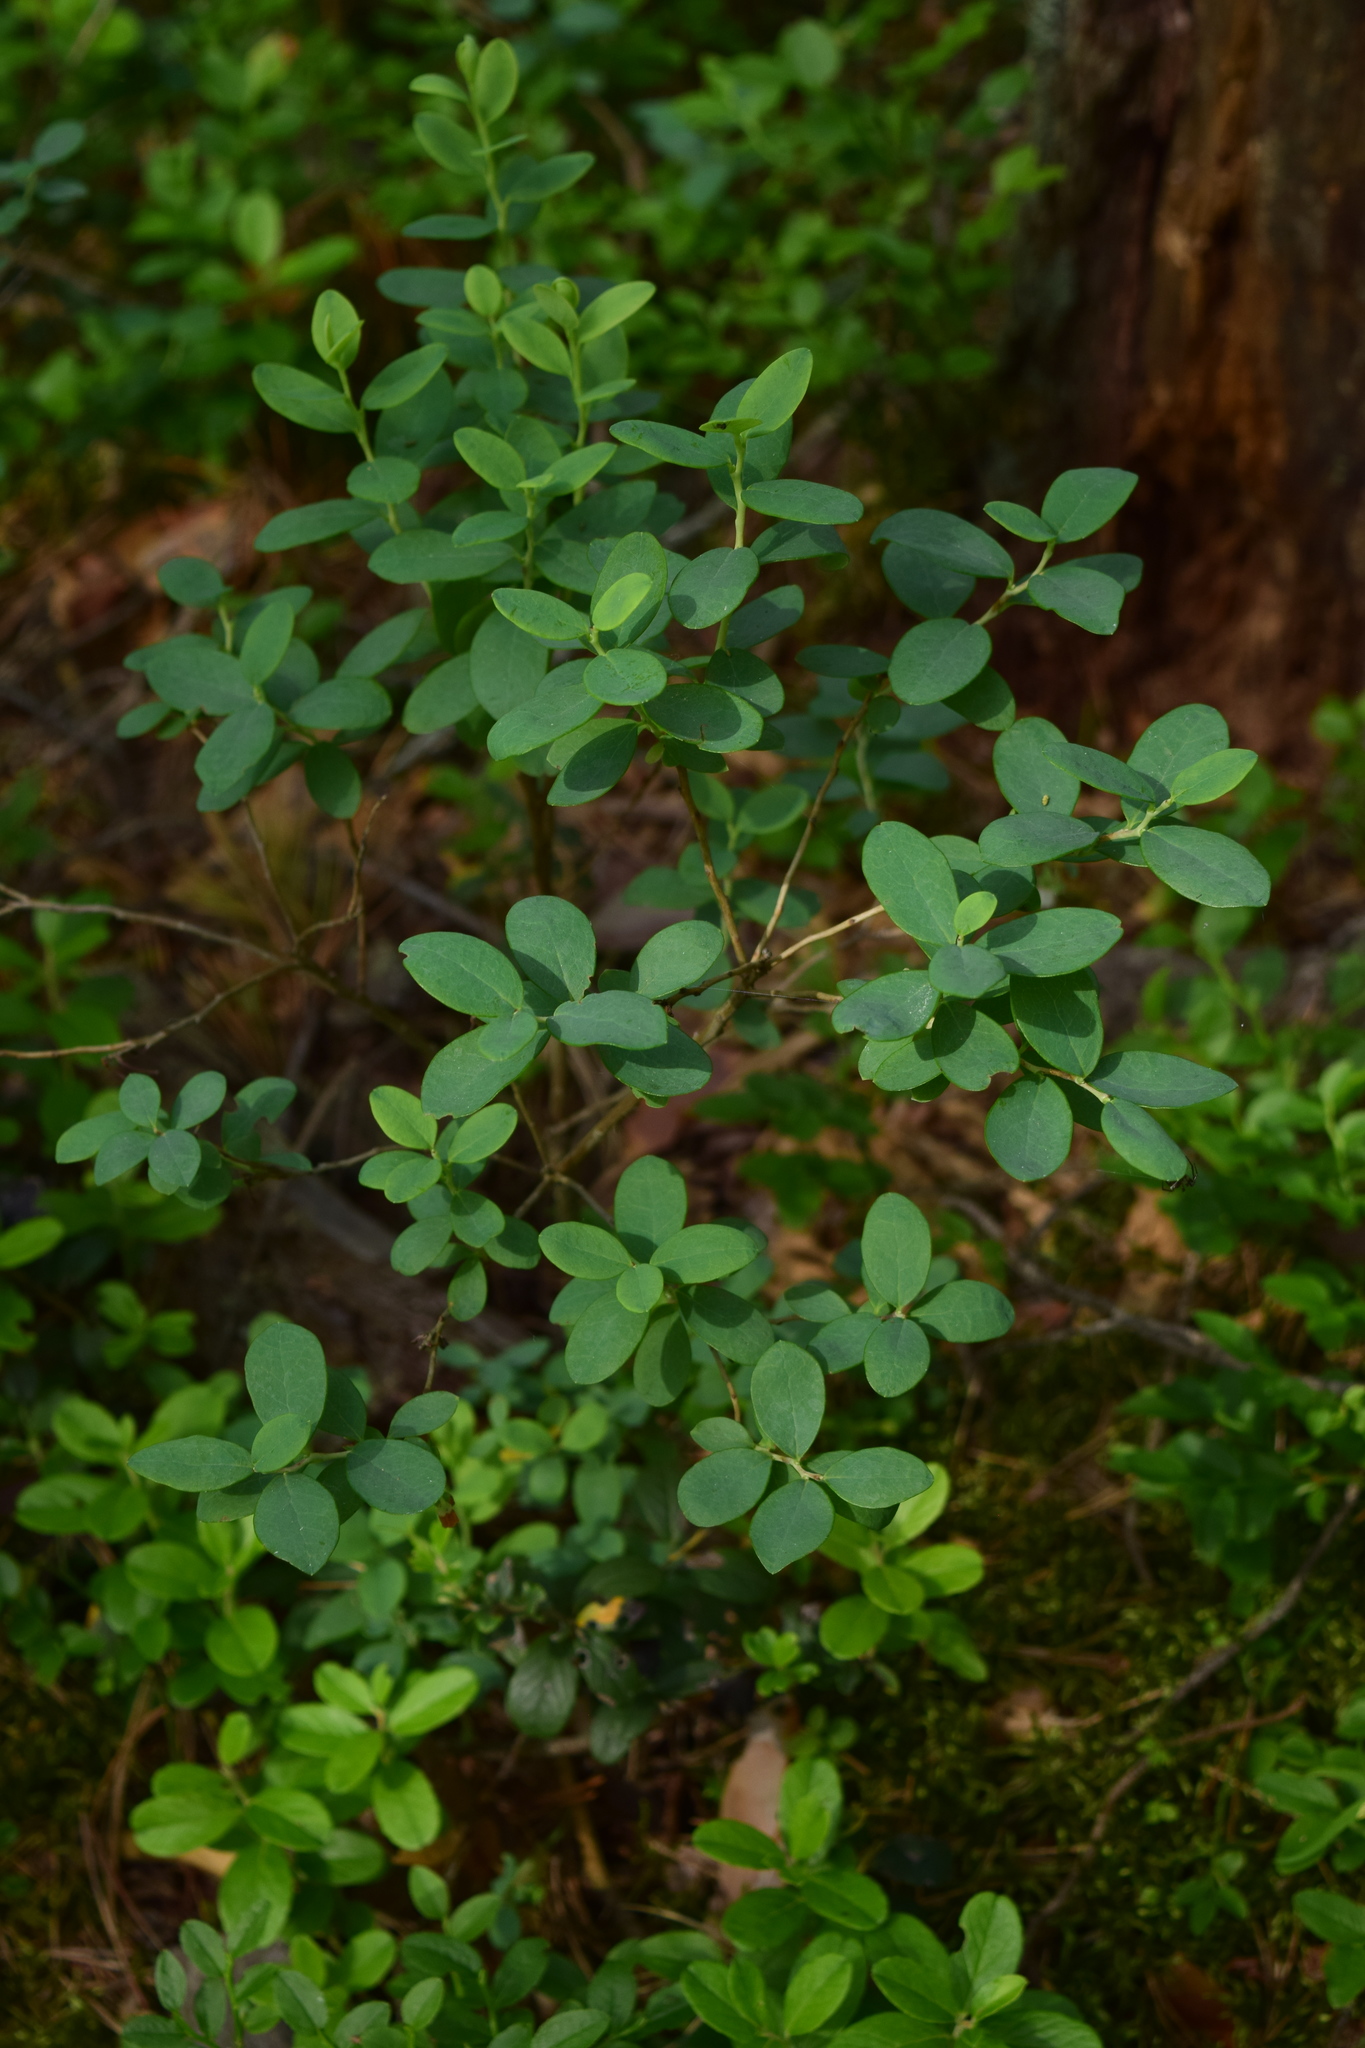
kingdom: Plantae
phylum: Tracheophyta
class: Magnoliopsida
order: Ericales
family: Ericaceae
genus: Vaccinium
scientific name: Vaccinium uliginosum
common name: Bog bilberry
